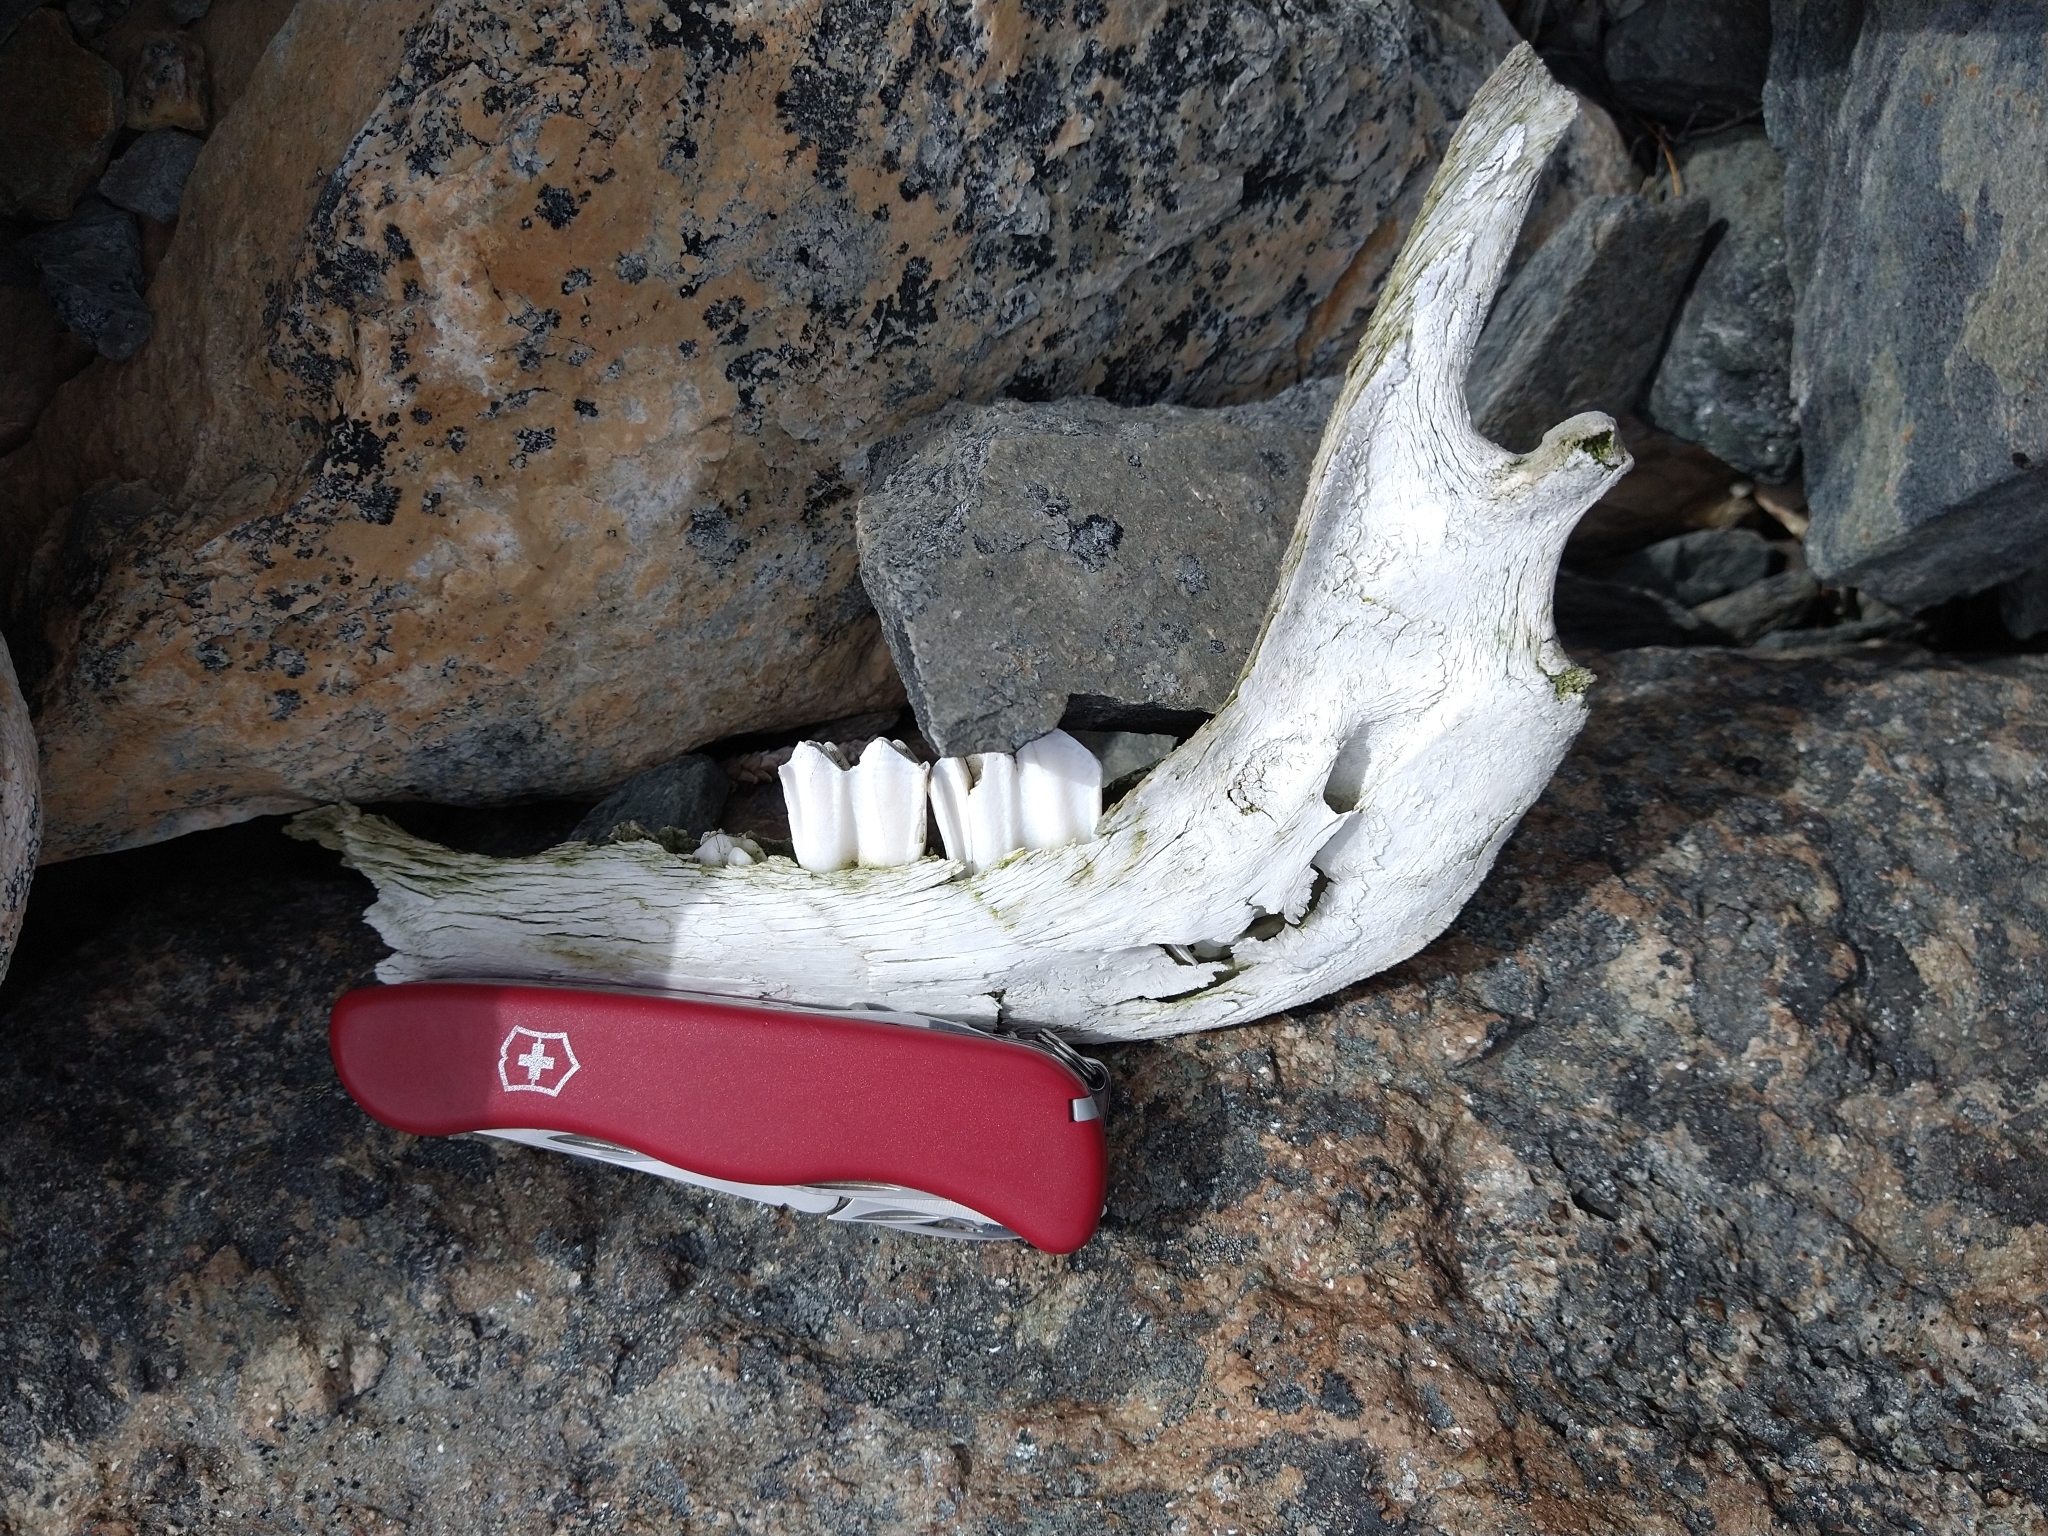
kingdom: Animalia
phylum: Chordata
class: Mammalia
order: Artiodactyla
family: Camelidae
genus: Lama
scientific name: Lama glama
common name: Llama
